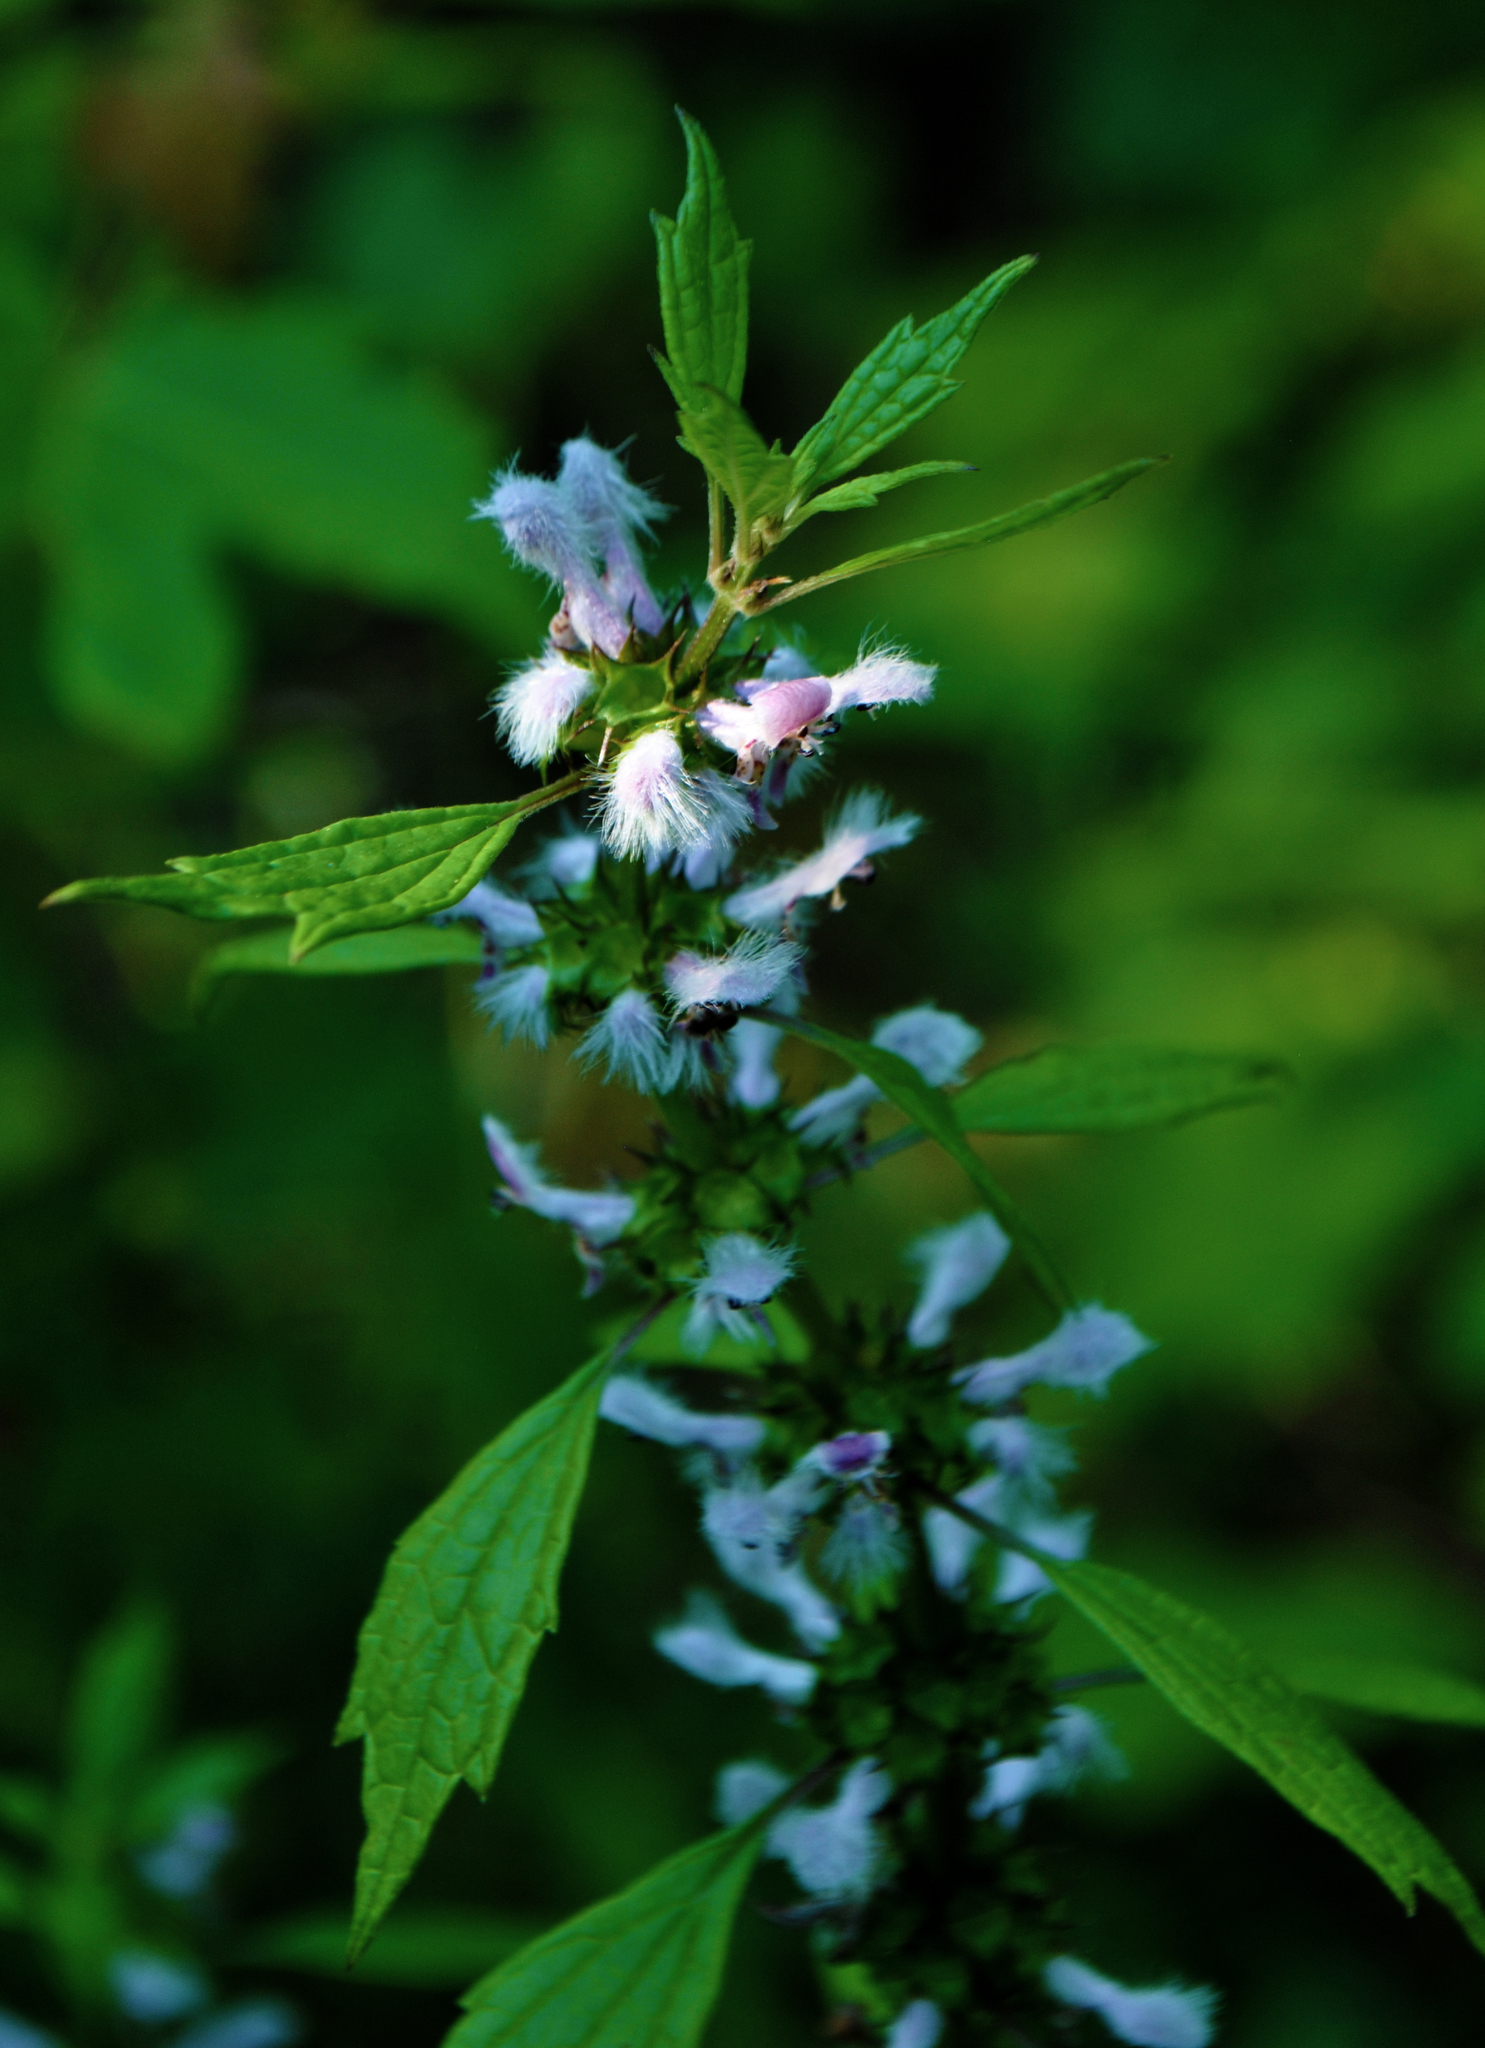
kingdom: Plantae
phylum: Tracheophyta
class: Magnoliopsida
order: Lamiales
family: Lamiaceae
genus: Leonurus
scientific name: Leonurus cardiaca
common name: Motherwort
